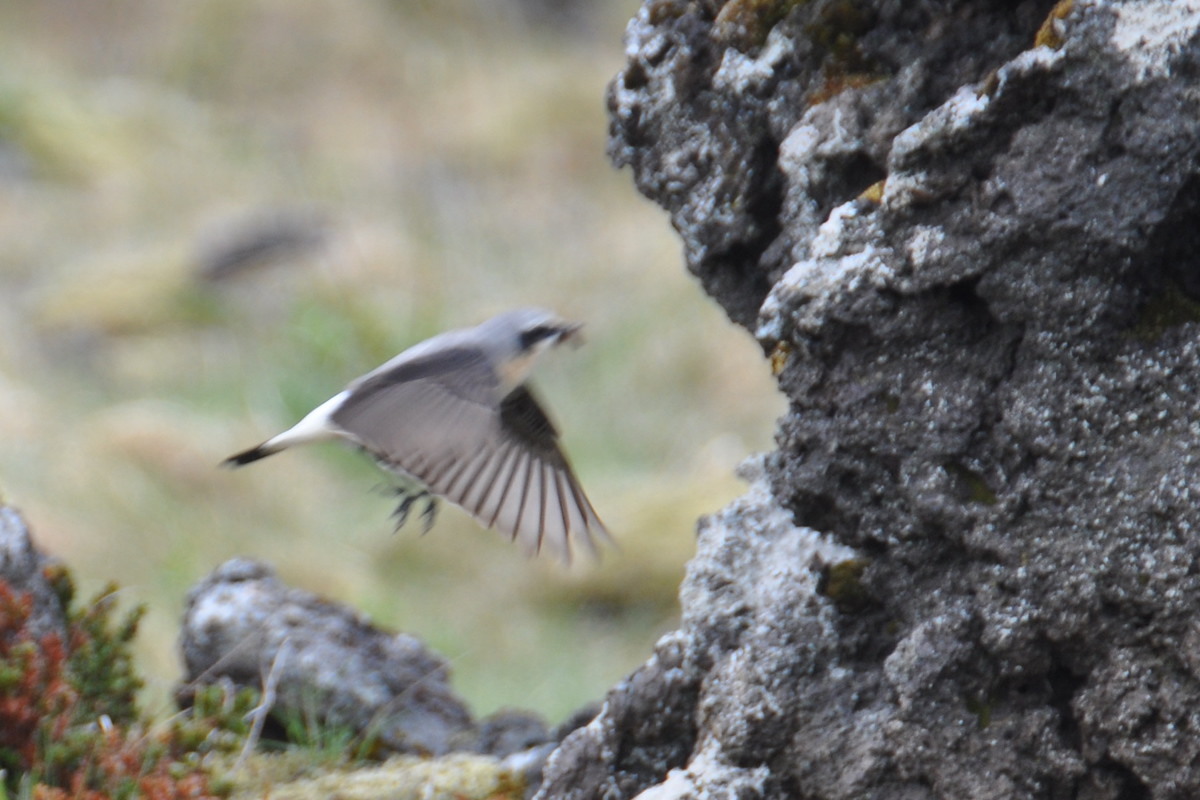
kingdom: Animalia
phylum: Chordata
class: Aves
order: Passeriformes
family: Muscicapidae
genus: Oenanthe
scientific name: Oenanthe oenanthe
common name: Northern wheatear
